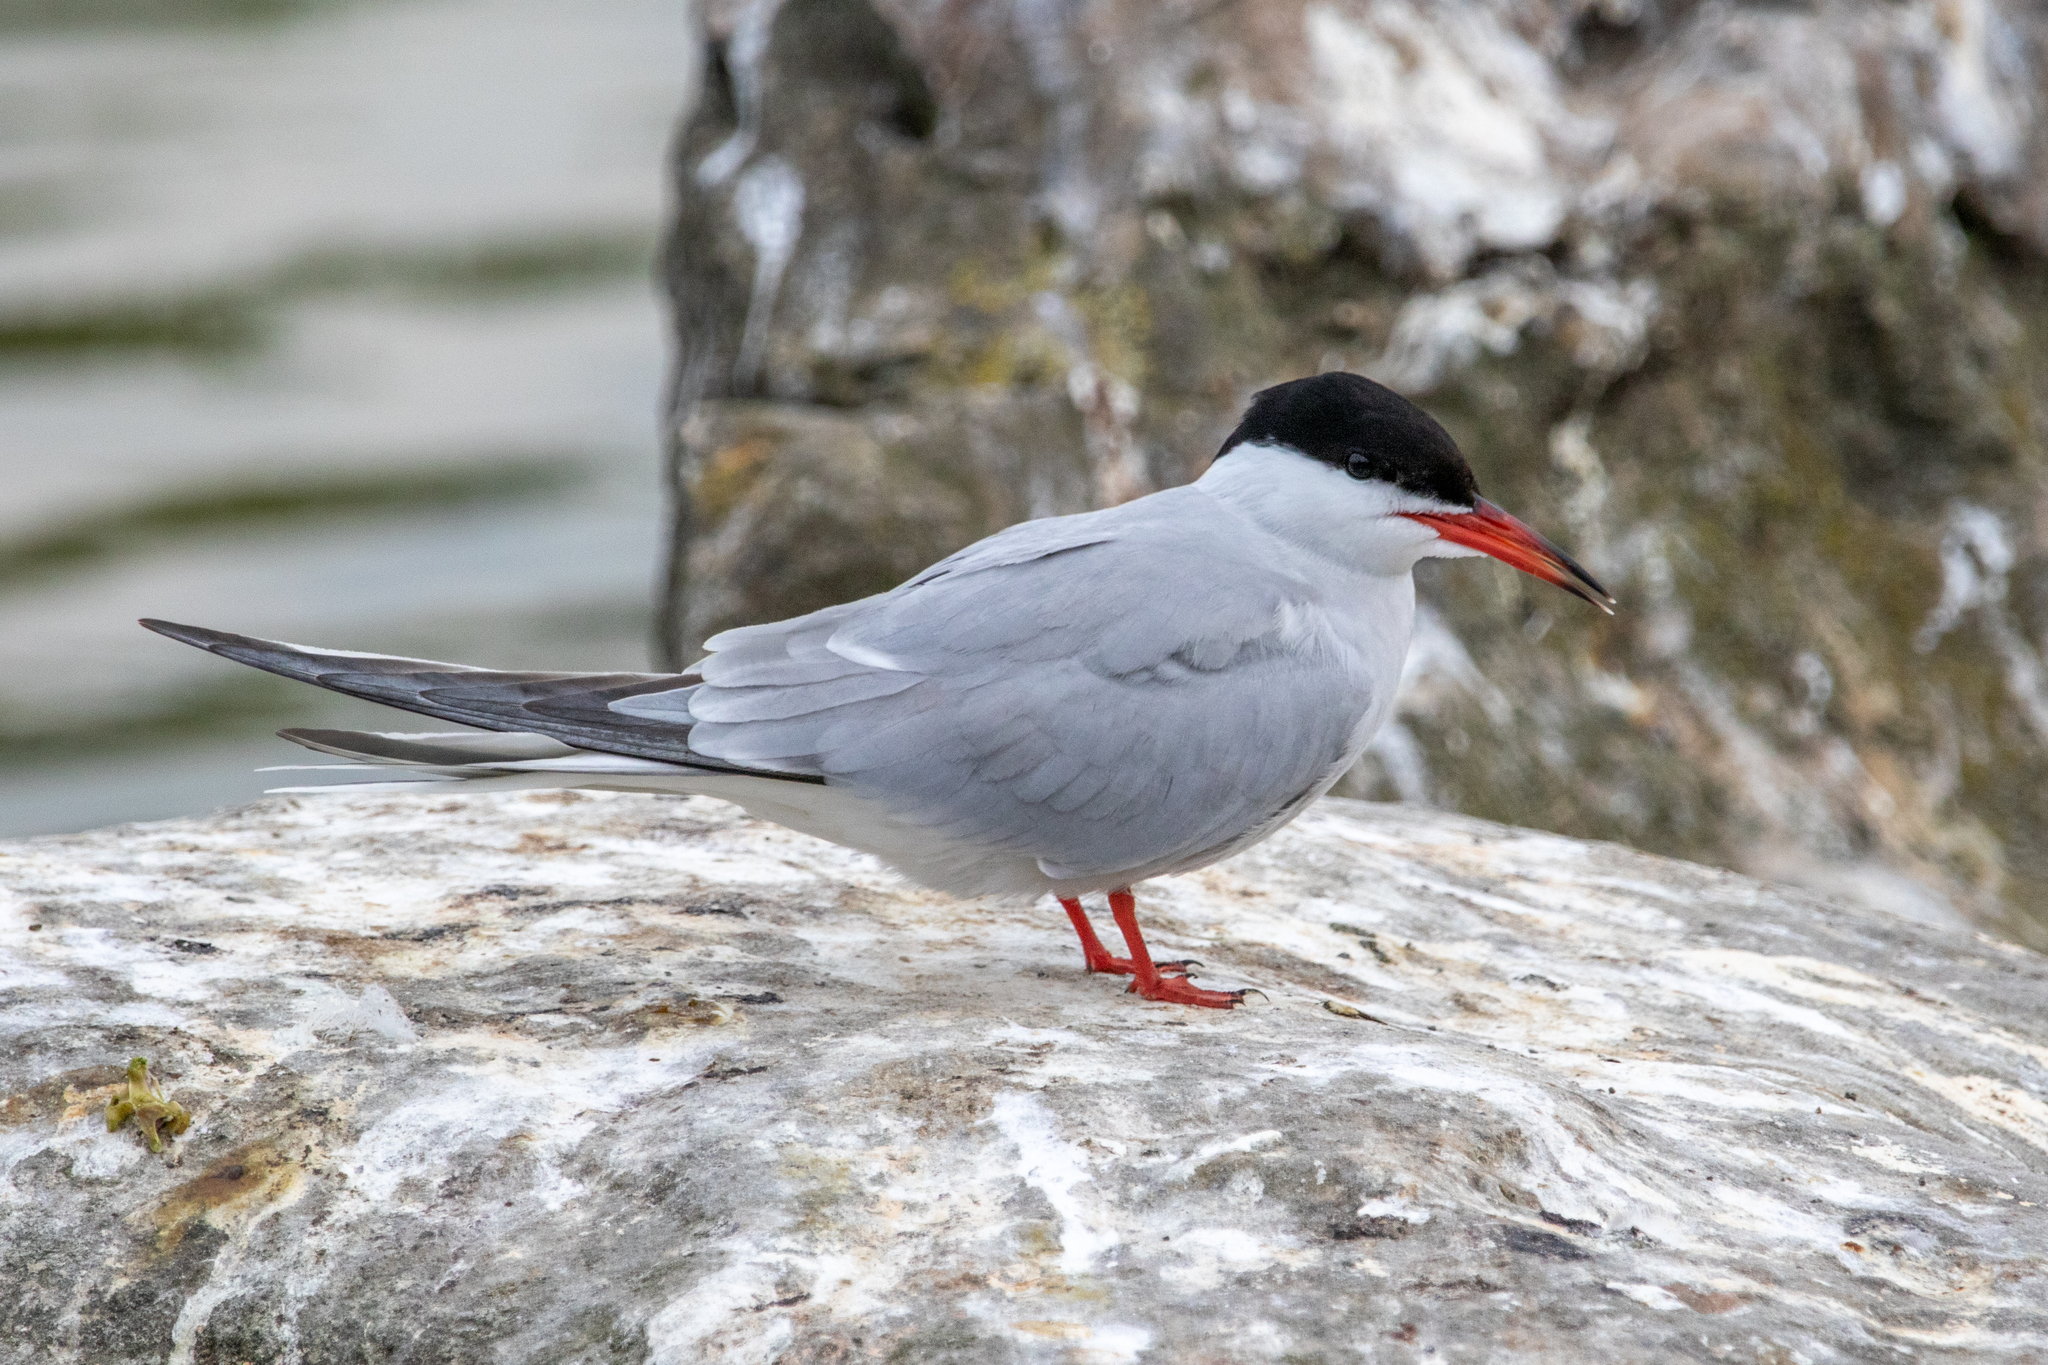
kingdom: Animalia
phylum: Chordata
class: Aves
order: Charadriiformes
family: Laridae
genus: Sterna
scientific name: Sterna hirundo
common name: Common tern
